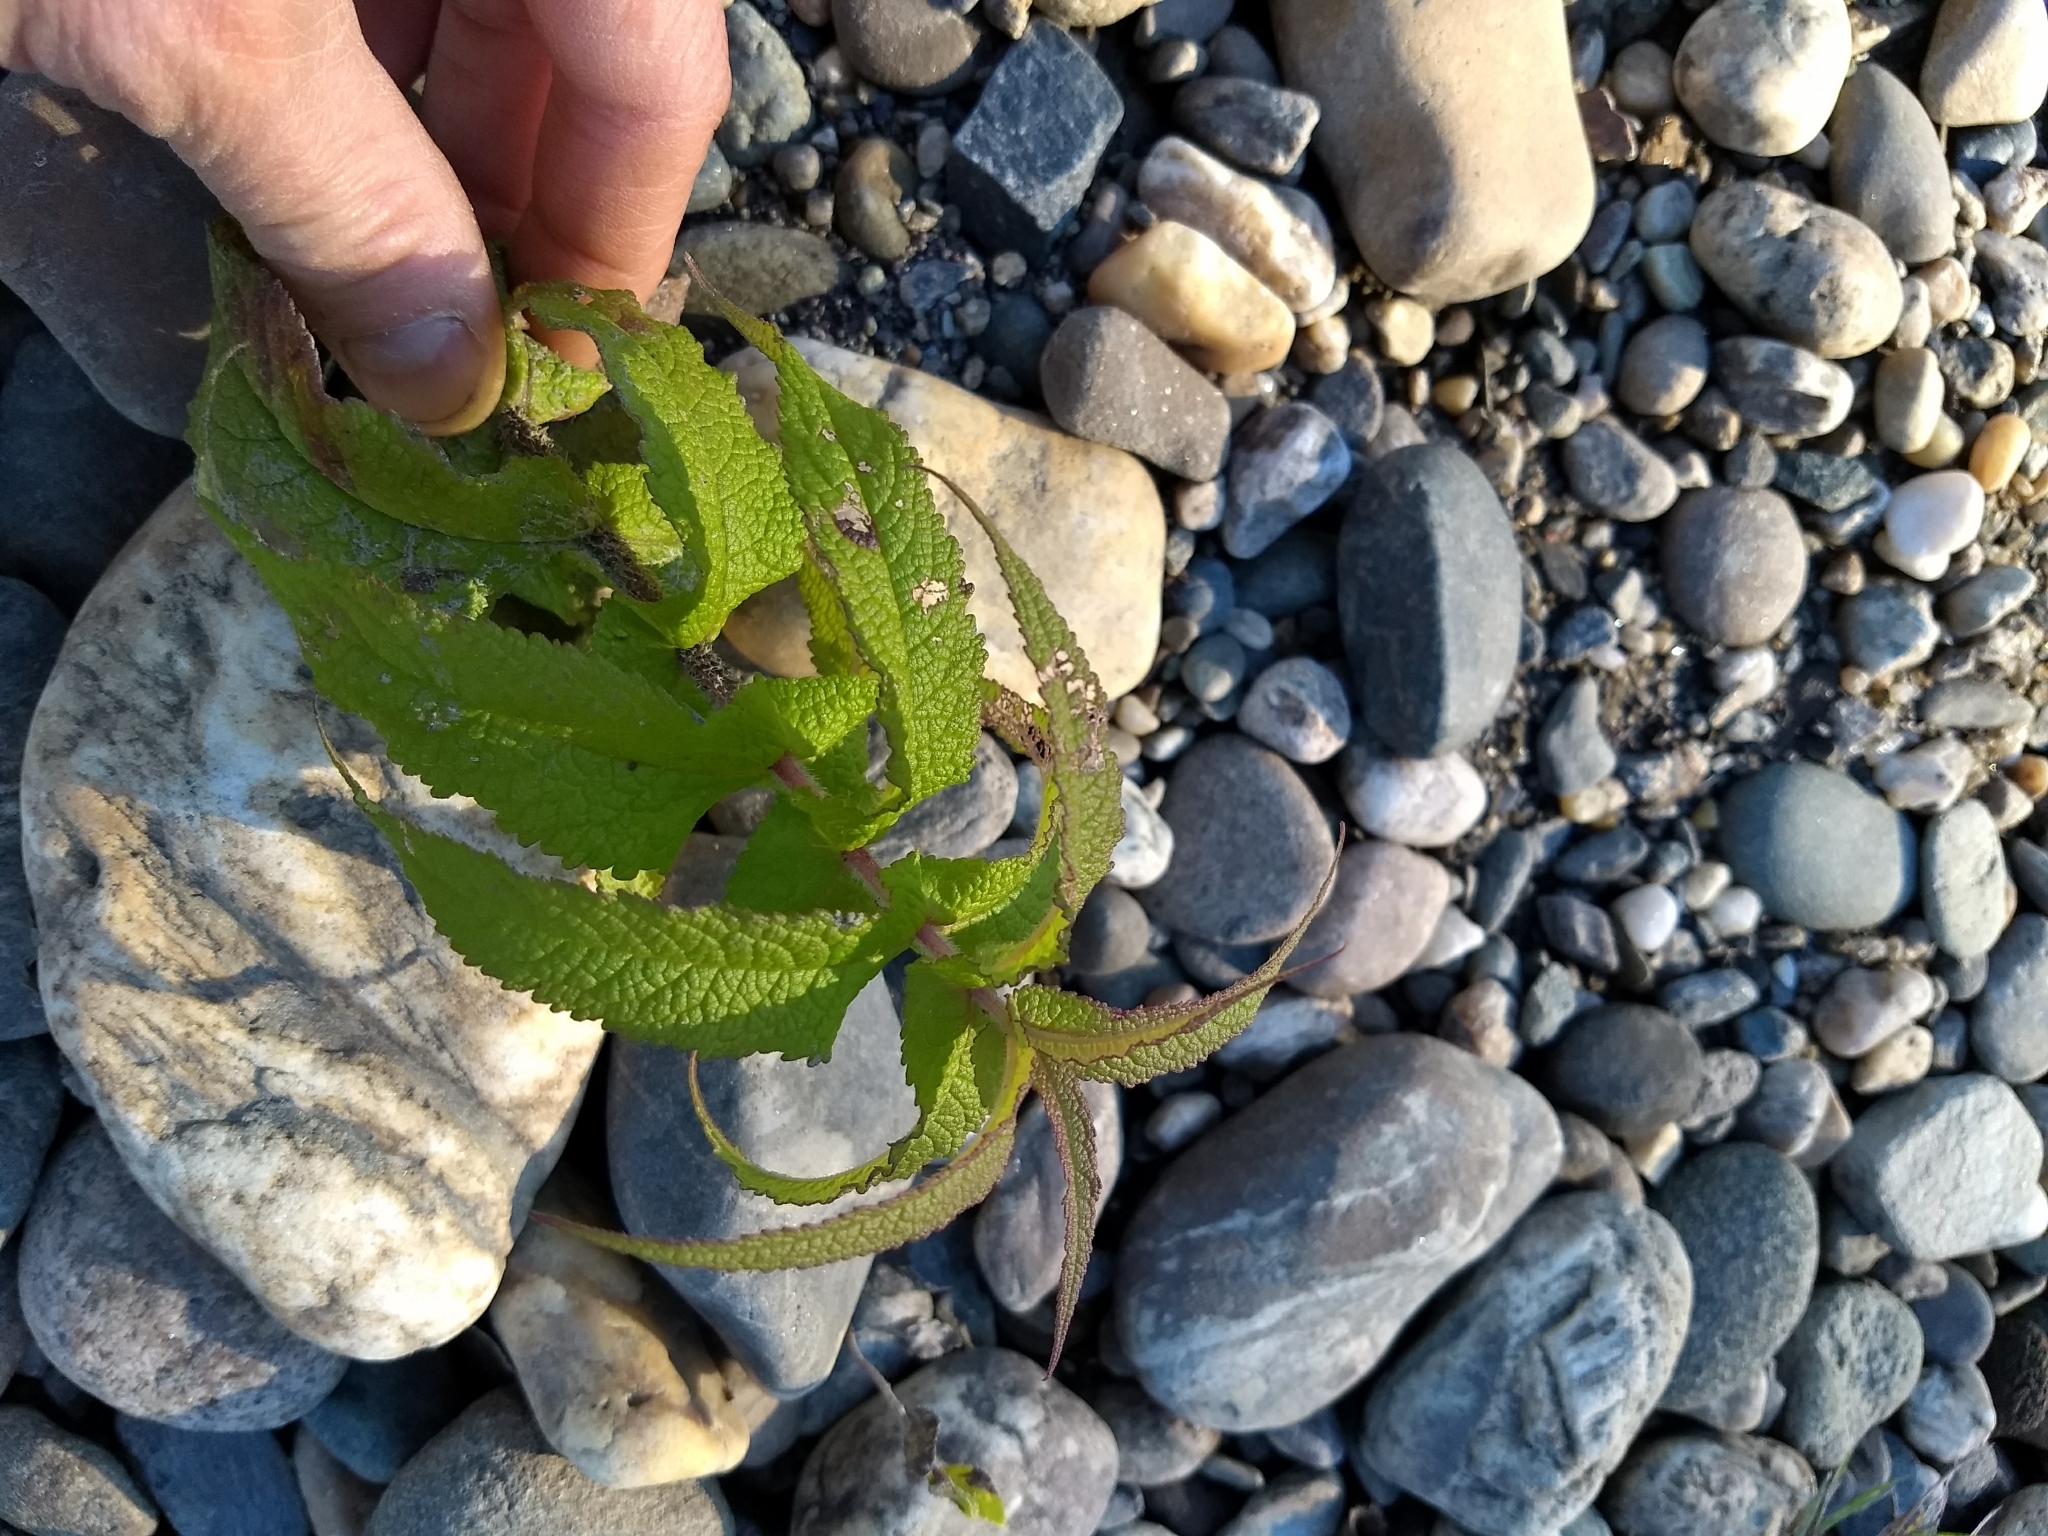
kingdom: Plantae
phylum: Tracheophyta
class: Magnoliopsida
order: Asterales
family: Asteraceae
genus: Eupatorium
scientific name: Eupatorium perfoliatum
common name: Boneset
